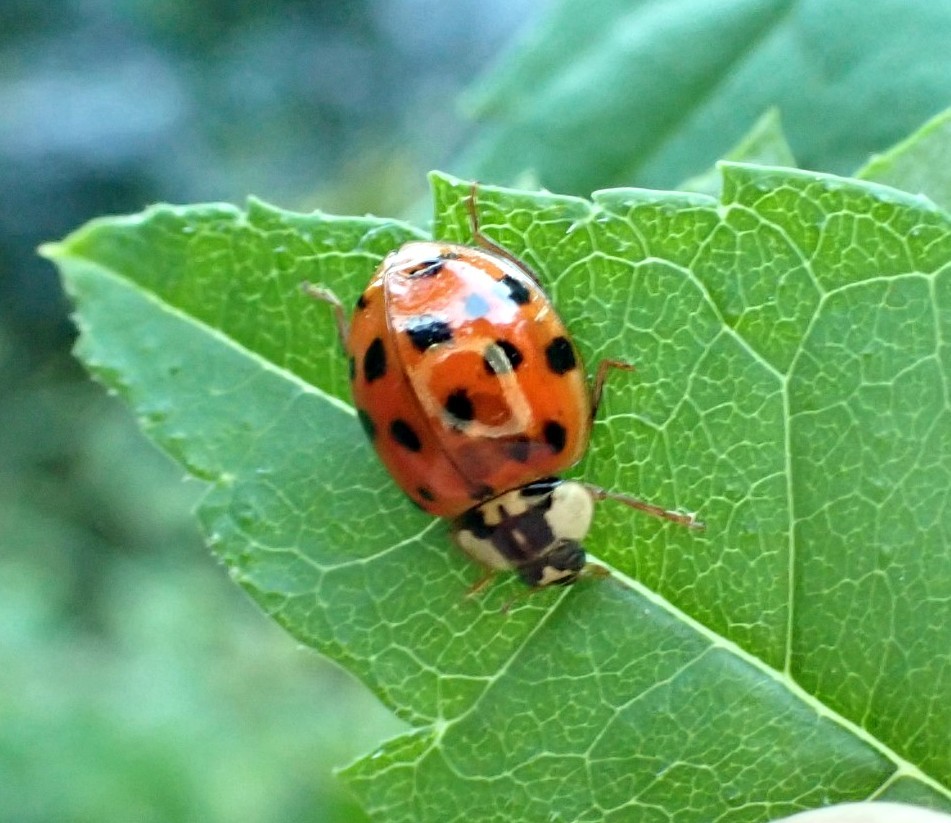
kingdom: Animalia
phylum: Arthropoda
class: Insecta
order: Coleoptera
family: Coccinellidae
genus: Harmonia
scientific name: Harmonia axyridis
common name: Harlequin ladybird
